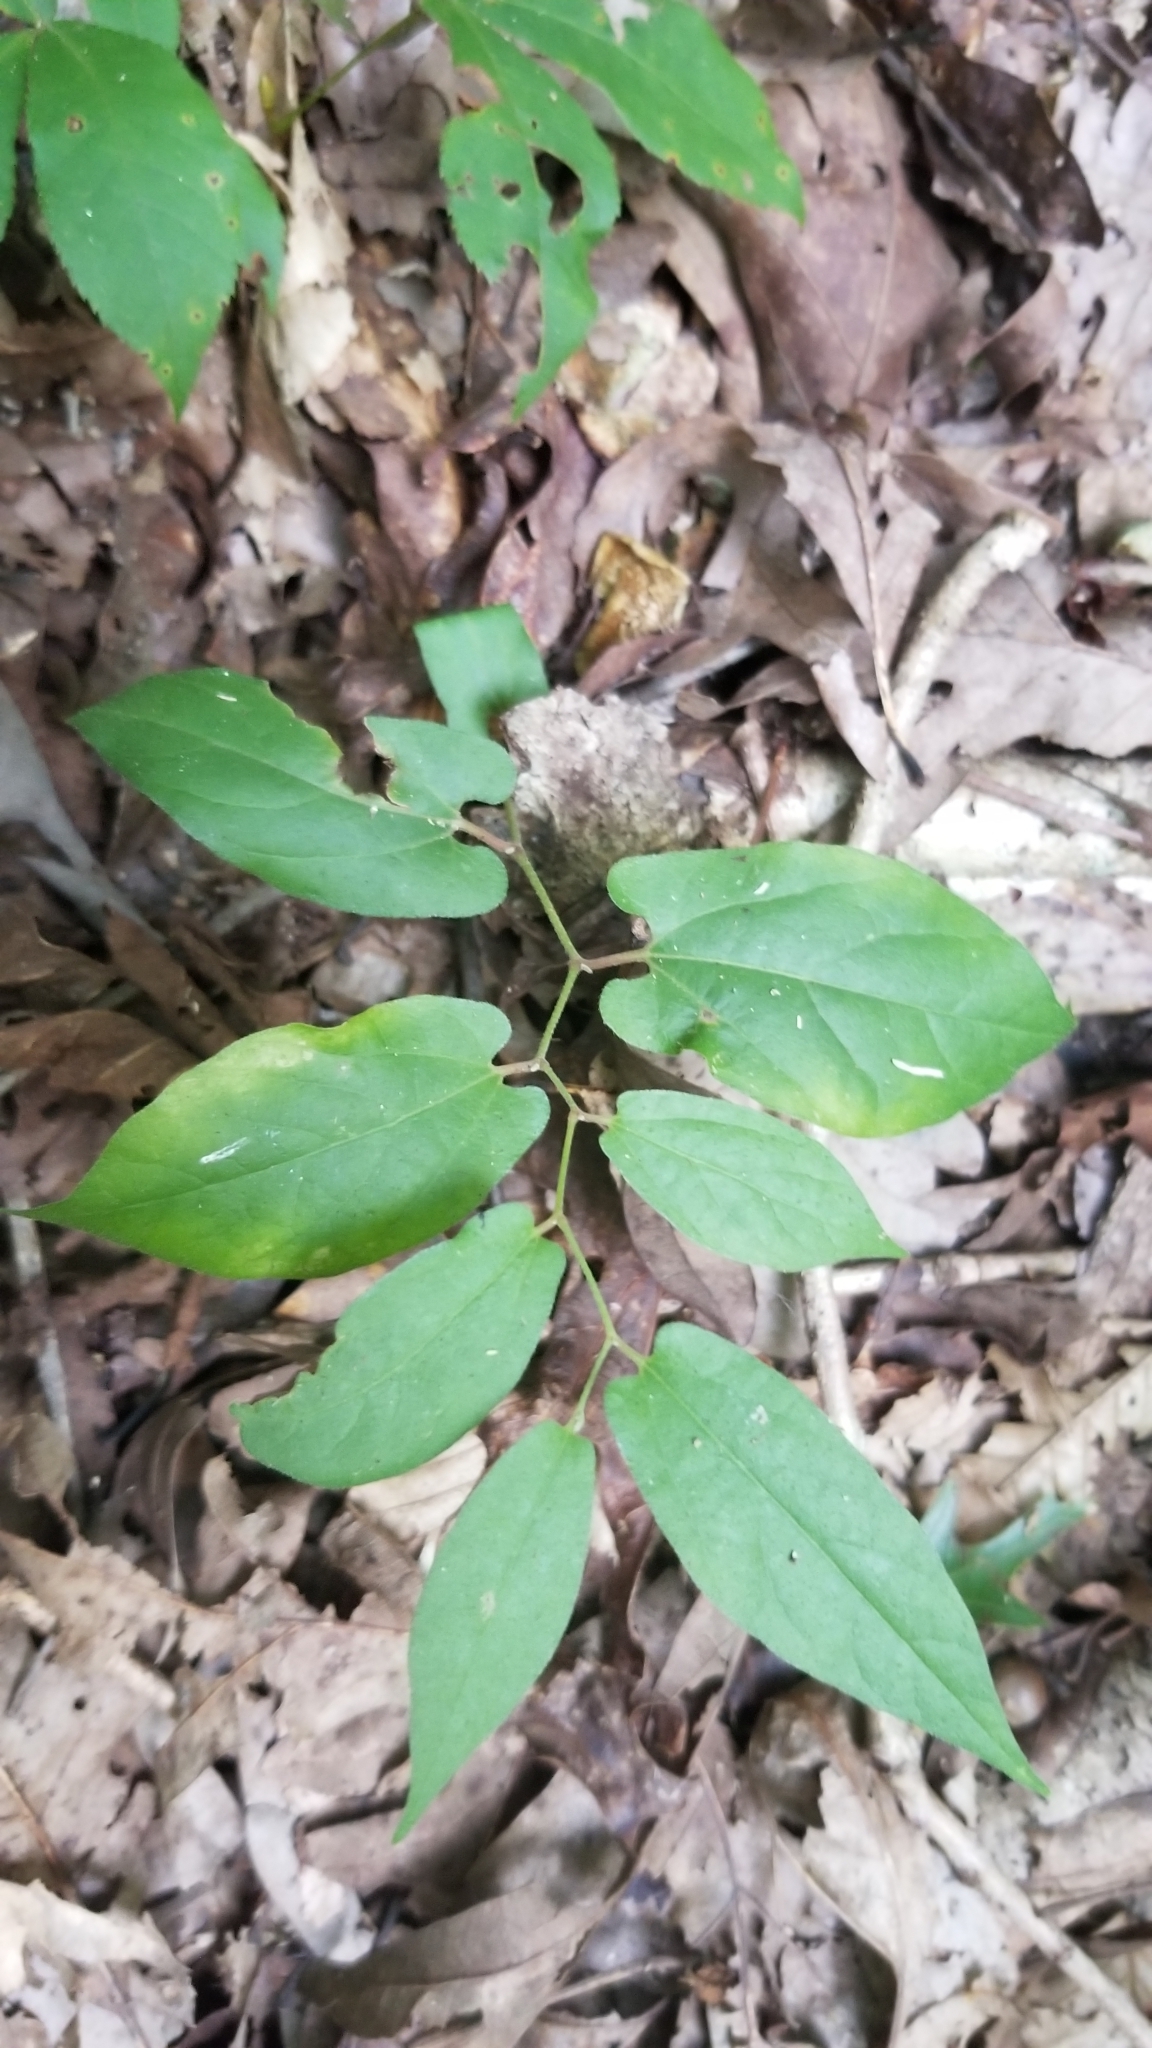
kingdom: Plantae
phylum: Tracheophyta
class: Magnoliopsida
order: Piperales
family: Aristolochiaceae
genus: Endodeca
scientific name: Endodeca serpentaria
